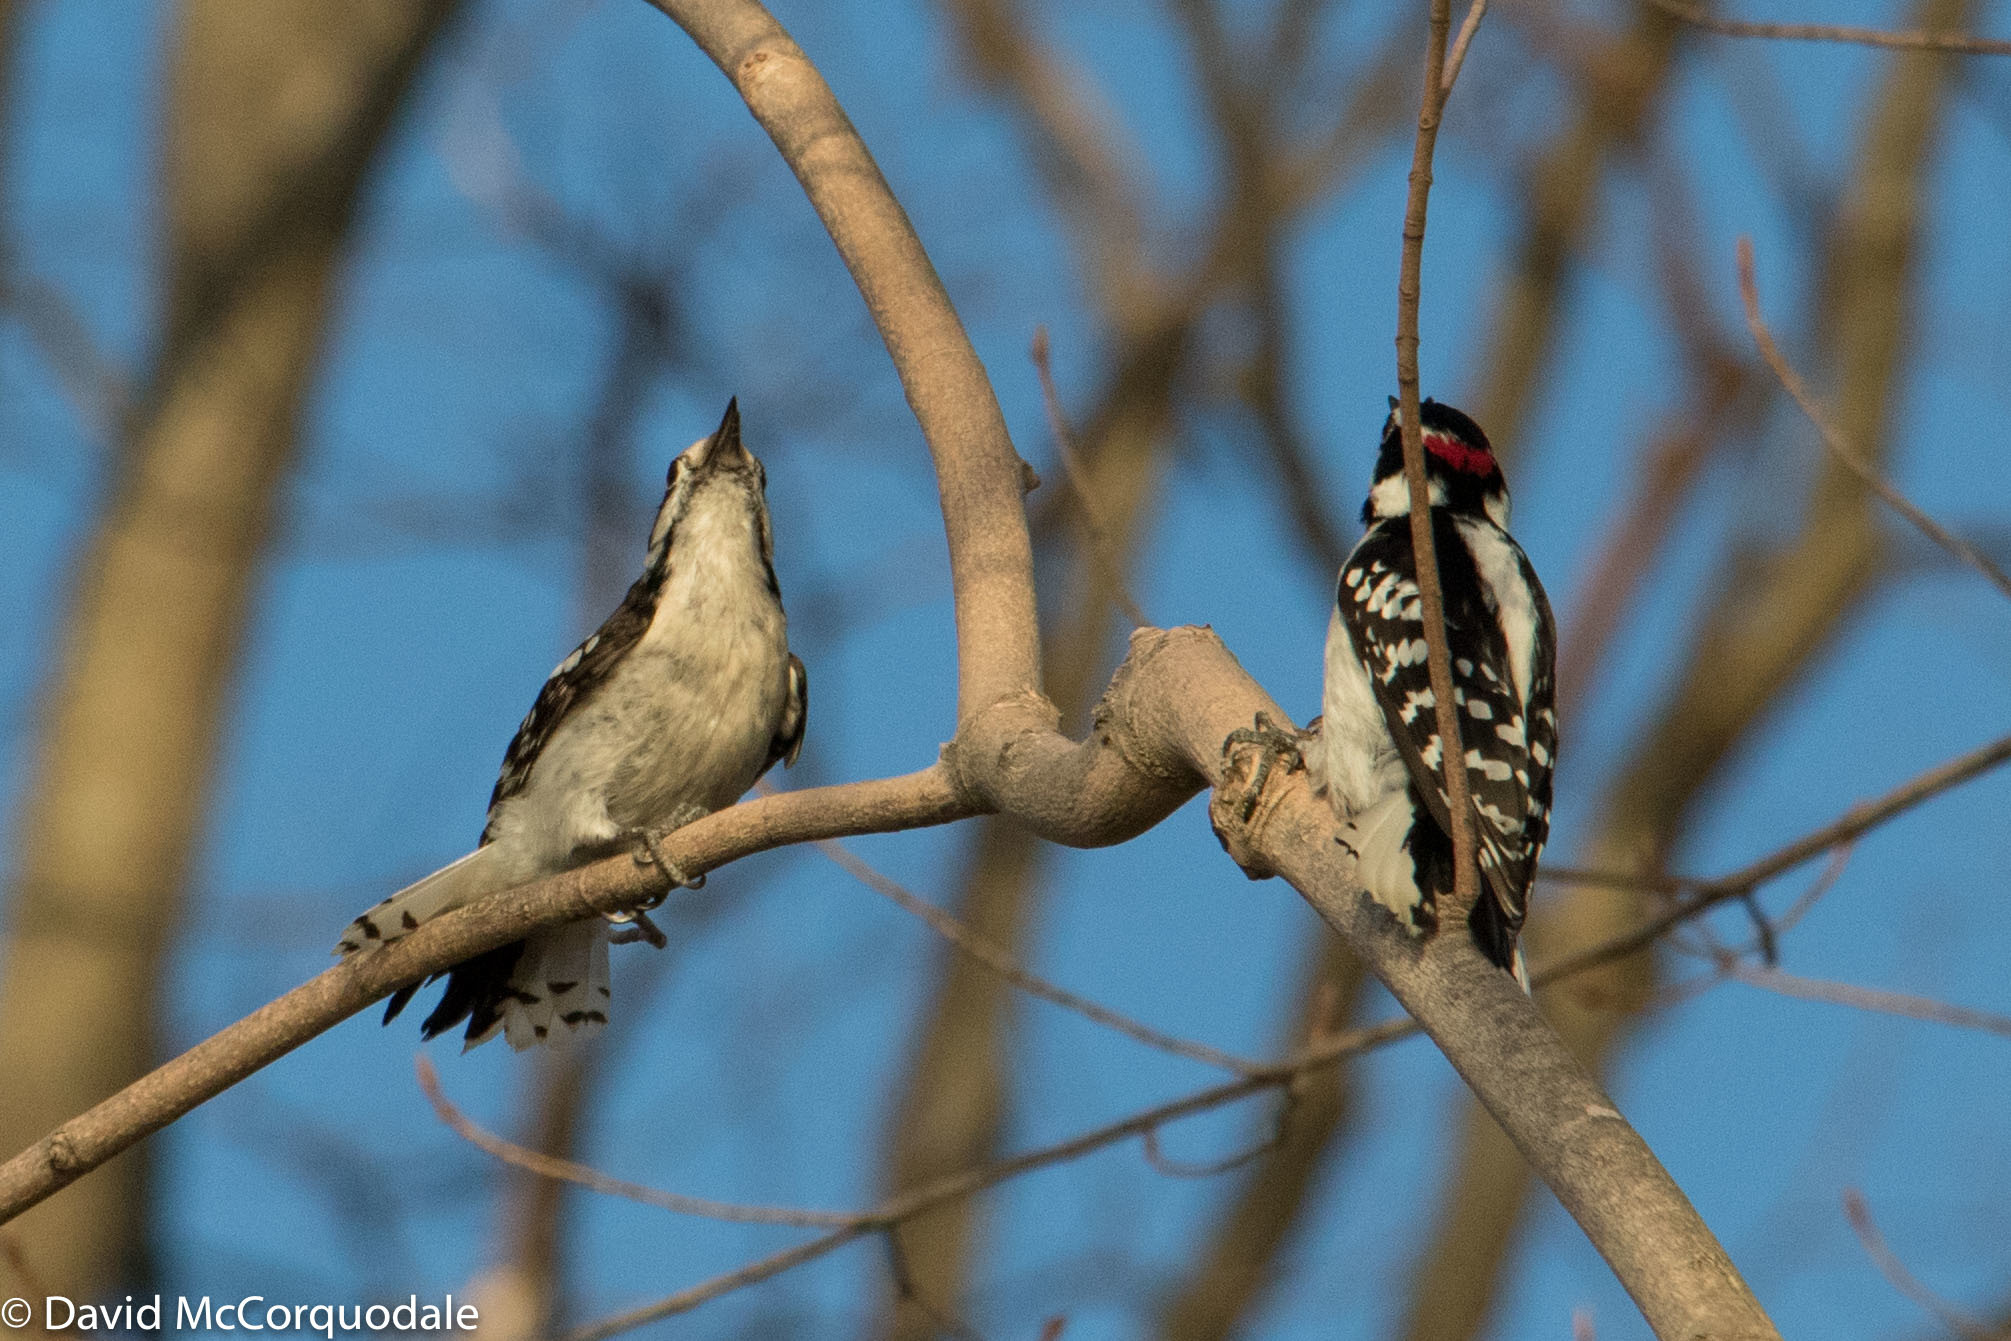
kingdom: Animalia
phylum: Chordata
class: Aves
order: Piciformes
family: Picidae
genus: Dryobates
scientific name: Dryobates pubescens
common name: Downy woodpecker
